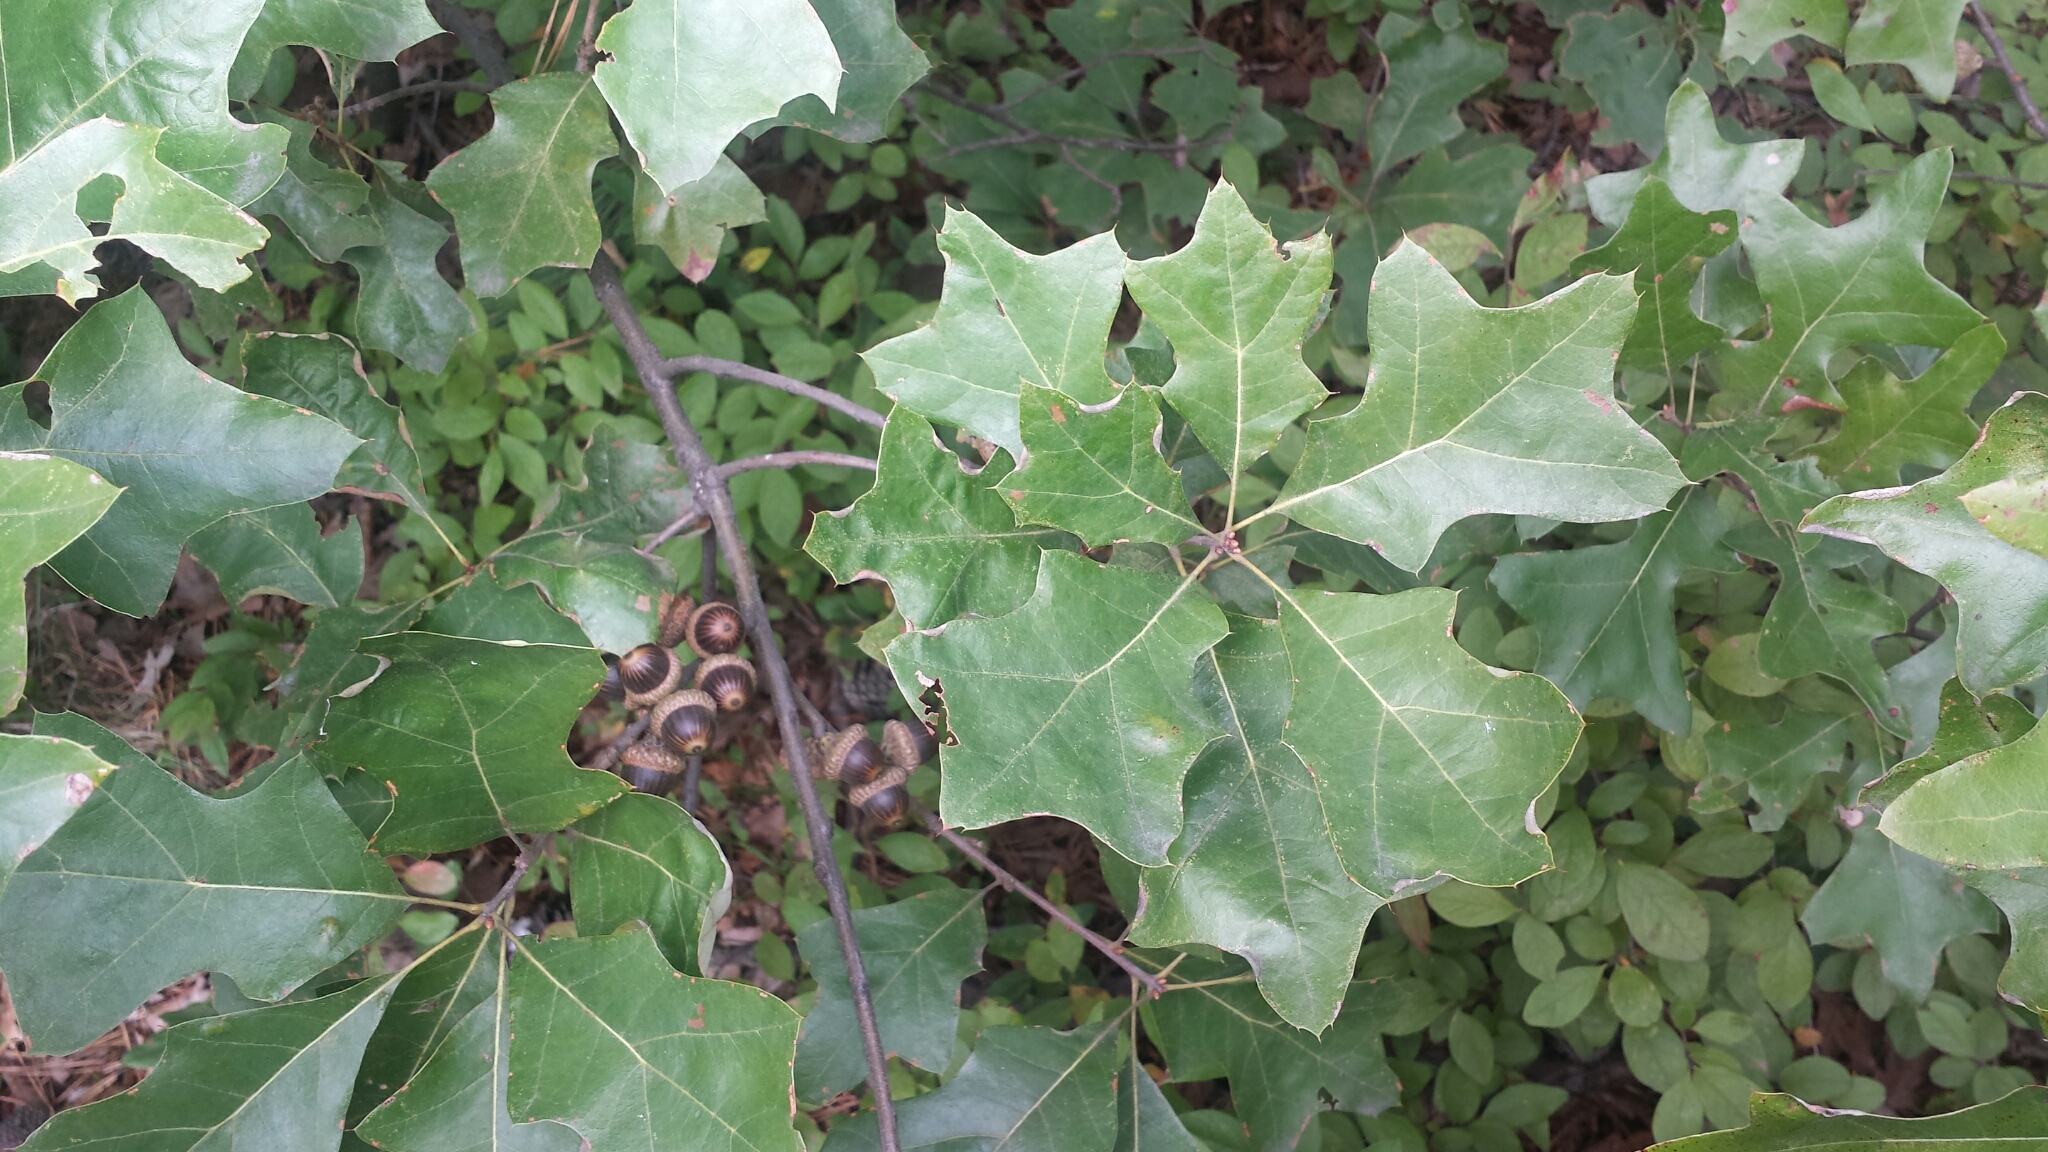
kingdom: Plantae
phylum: Tracheophyta
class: Magnoliopsida
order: Fagales
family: Fagaceae
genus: Quercus
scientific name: Quercus ilicifolia
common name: Bear oak
